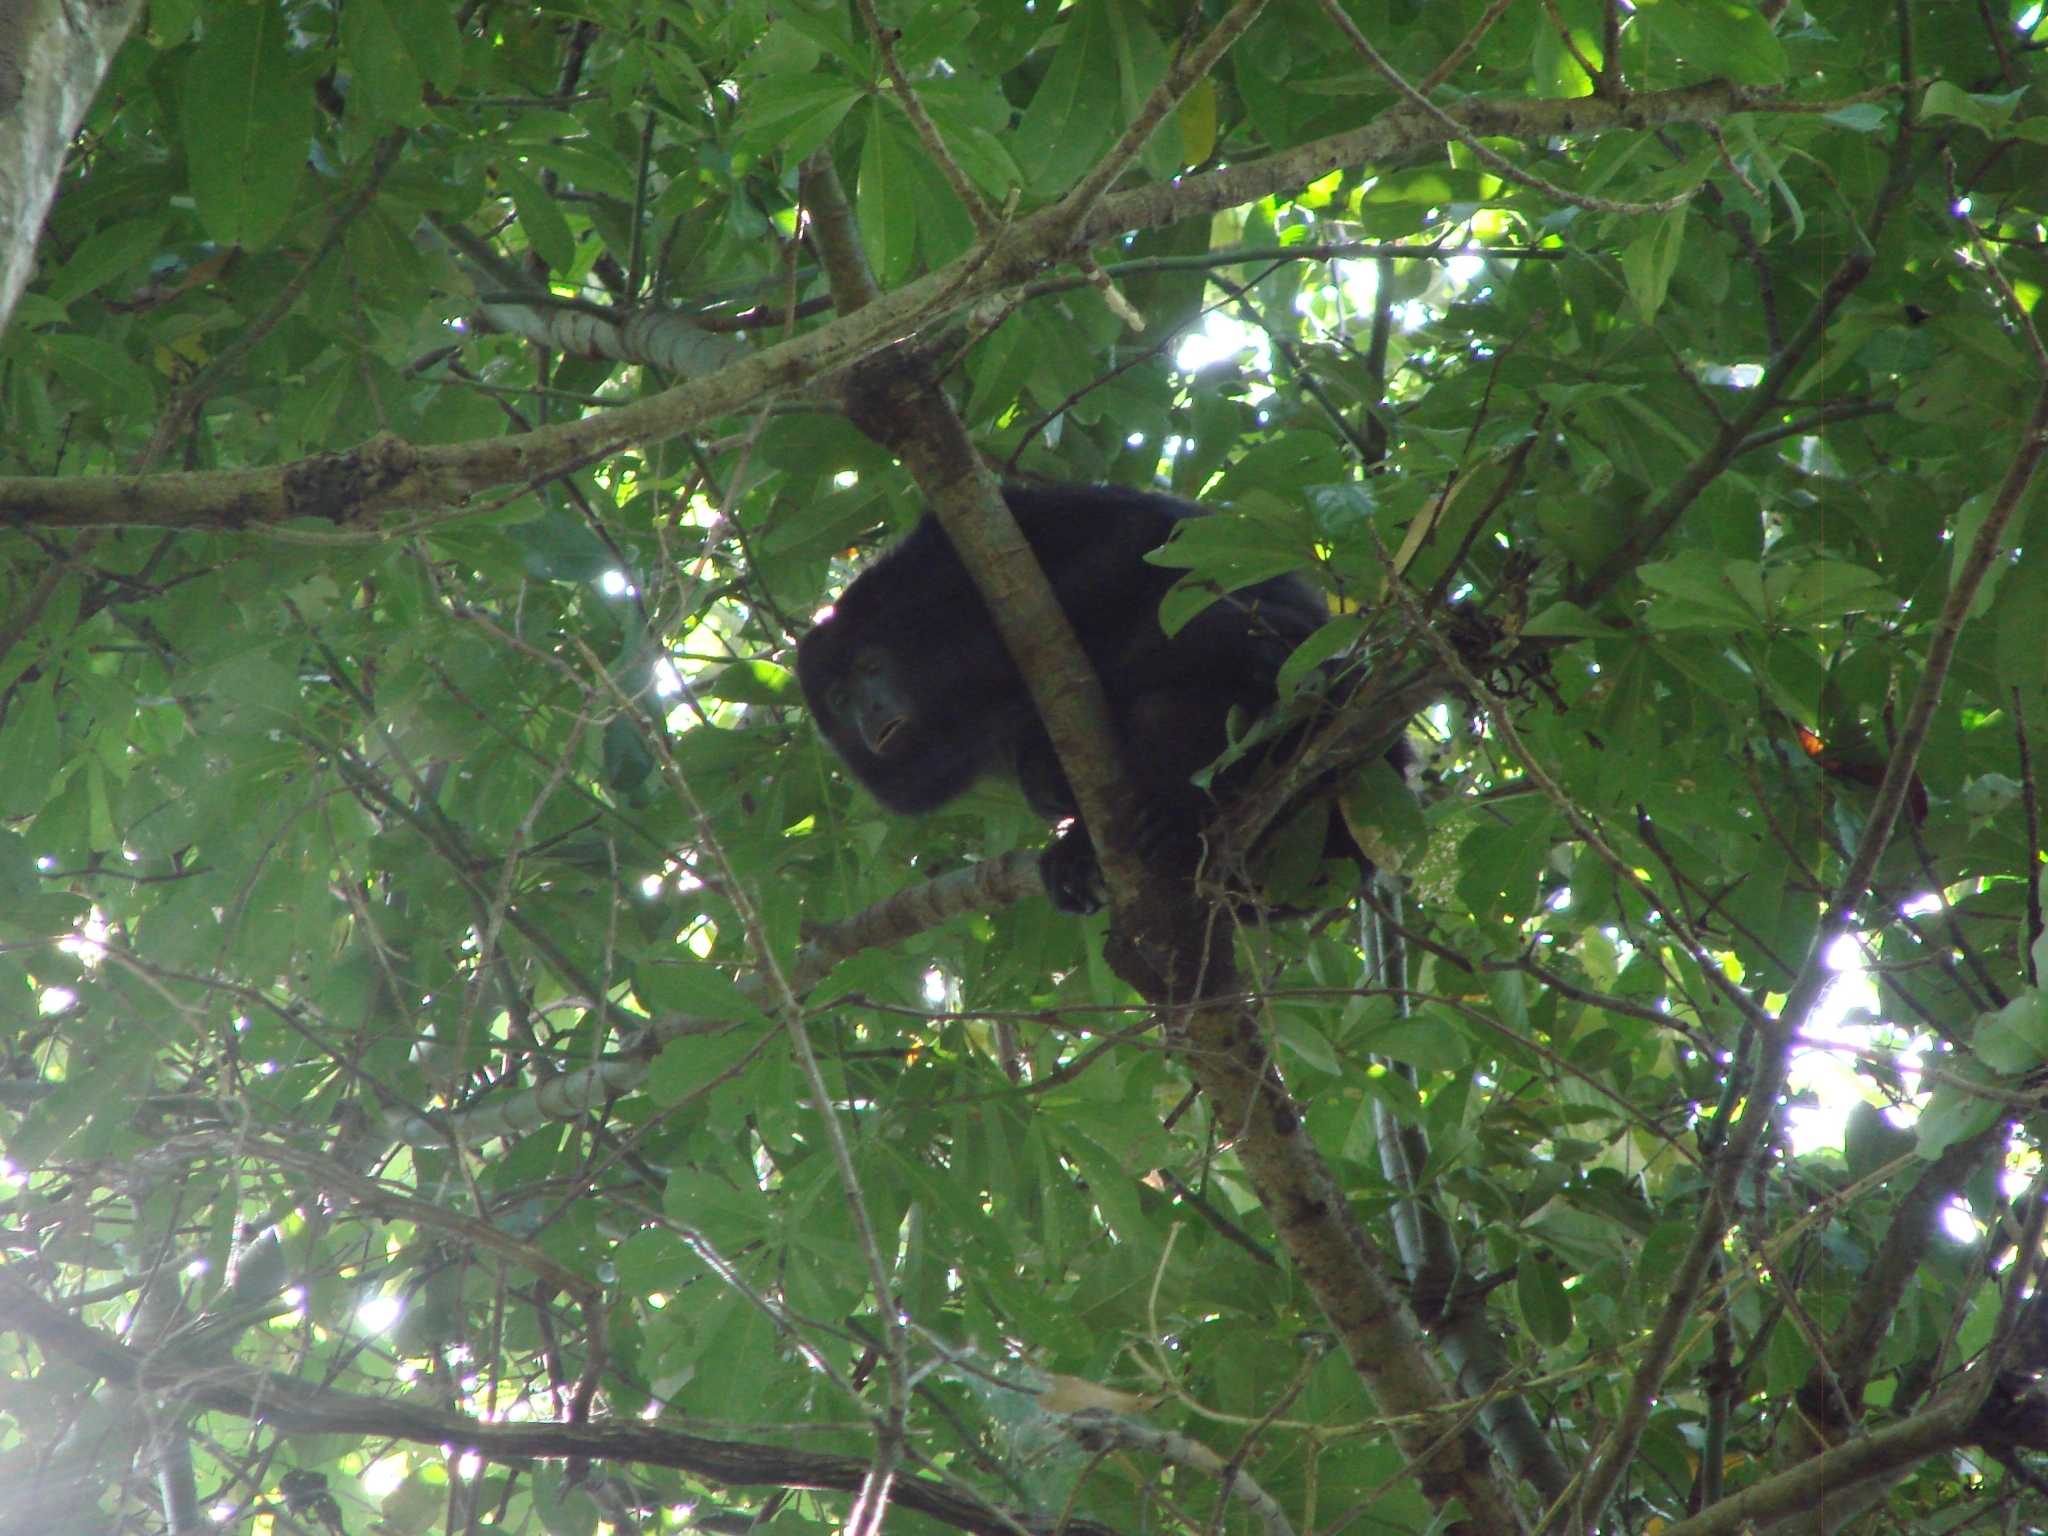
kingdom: Animalia
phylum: Chordata
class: Mammalia
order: Primates
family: Atelidae
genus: Alouatta
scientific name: Alouatta pigra
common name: Guatemalan black howler
